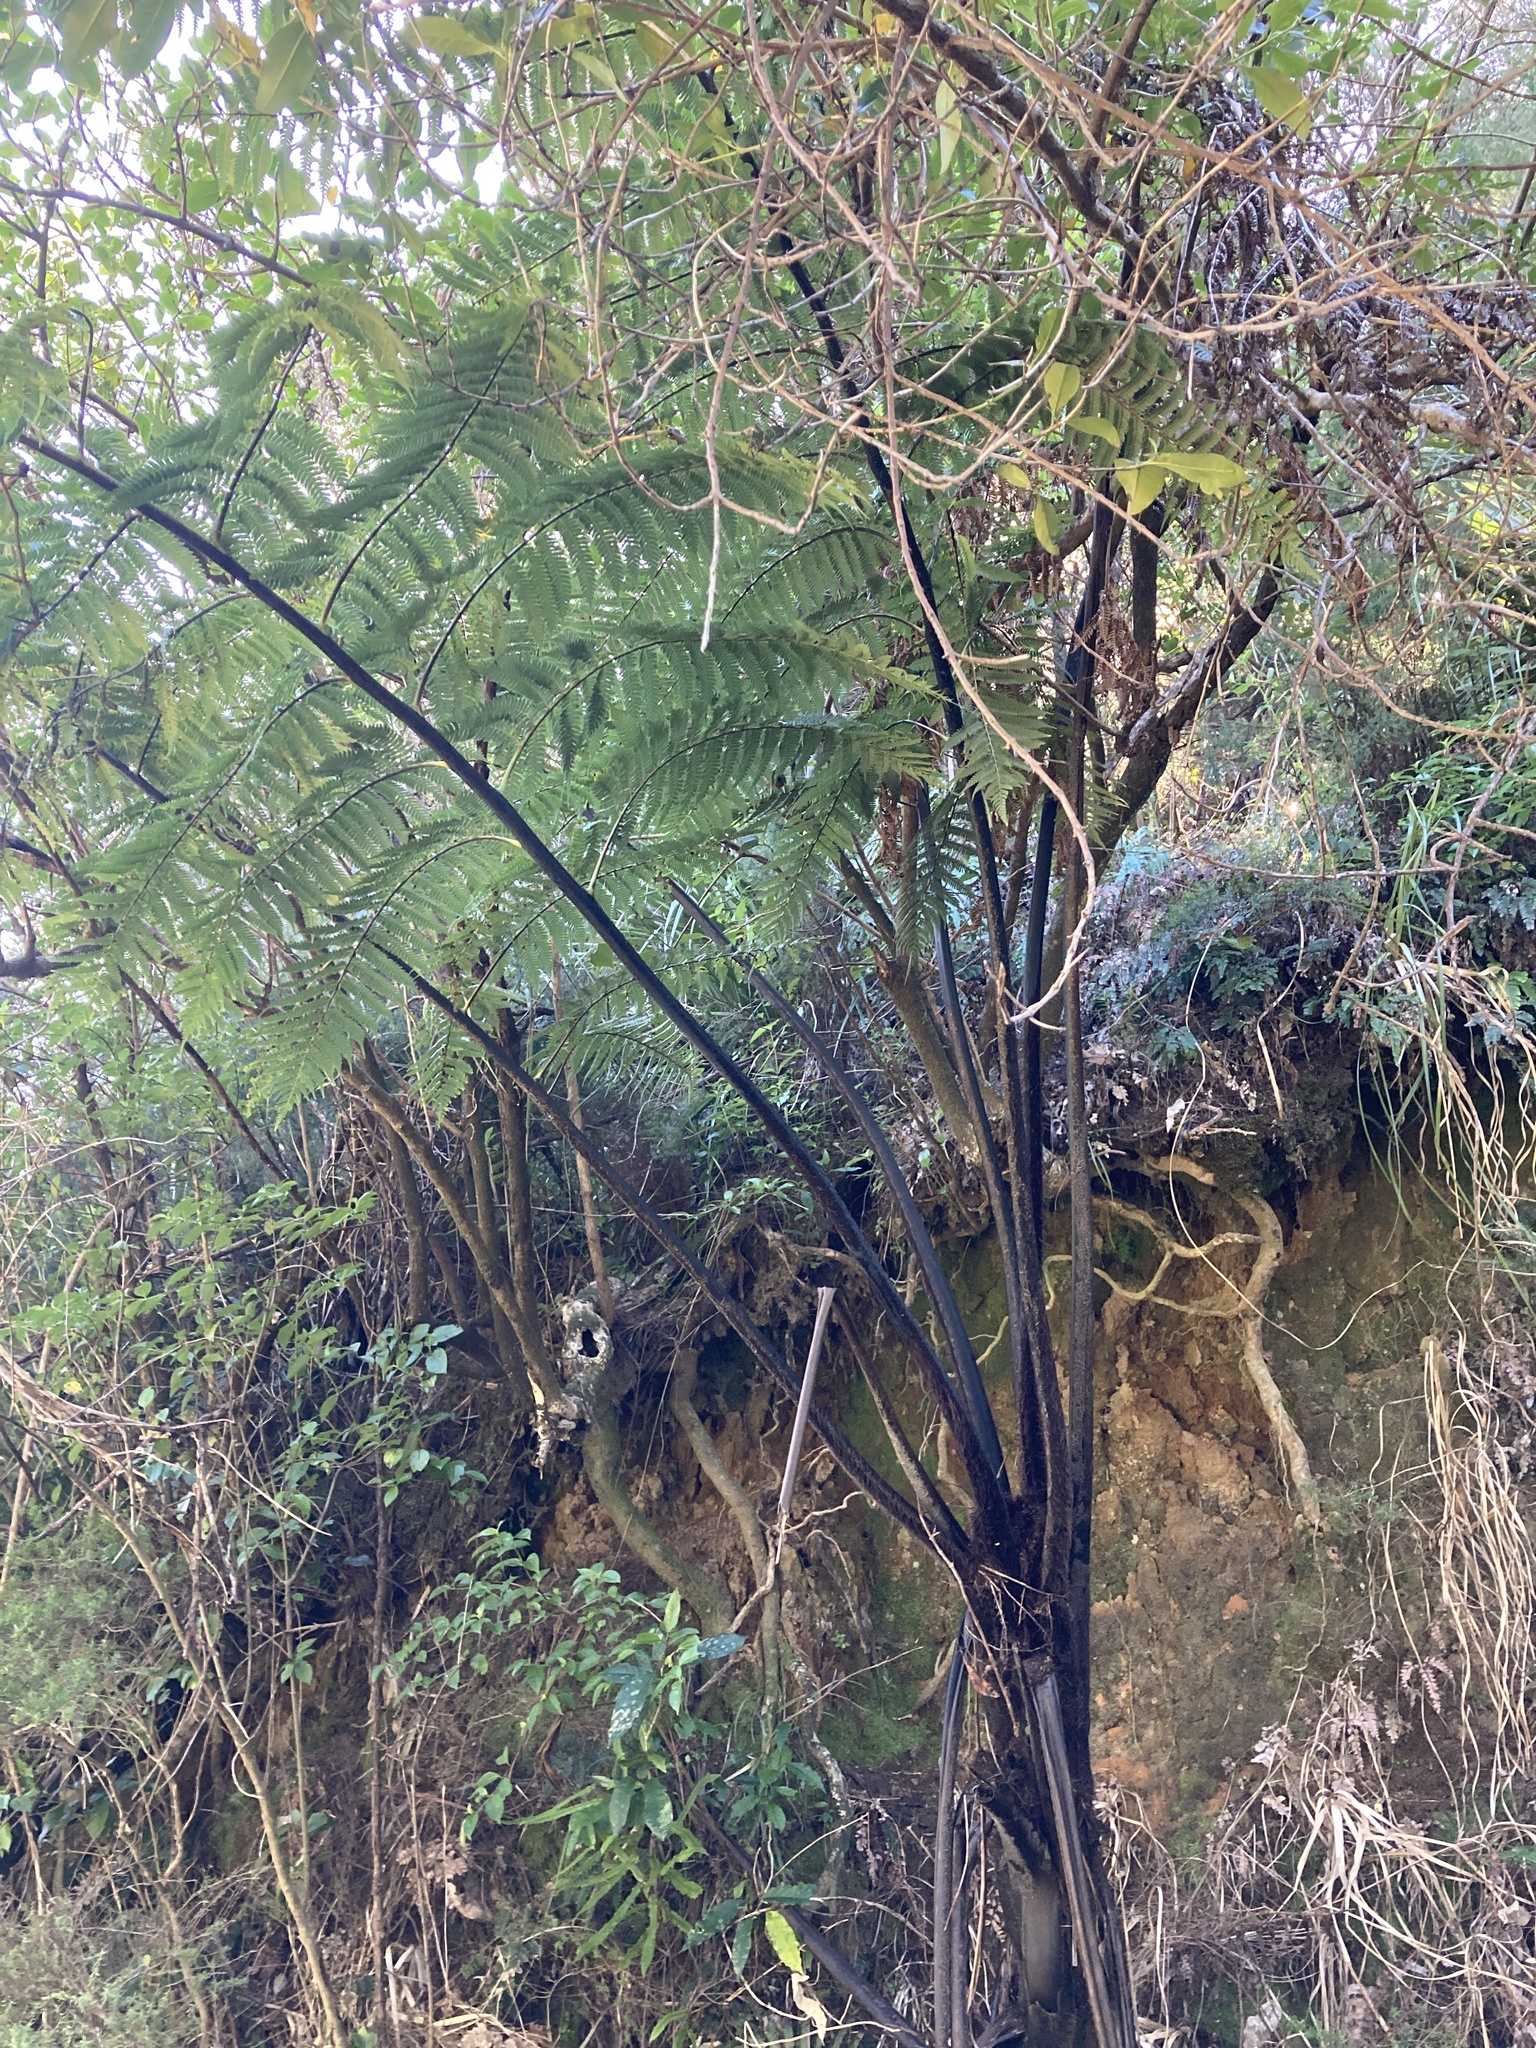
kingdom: Plantae
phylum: Tracheophyta
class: Polypodiopsida
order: Cyatheales
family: Cyatheaceae
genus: Sphaeropteris
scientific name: Sphaeropteris medullaris
